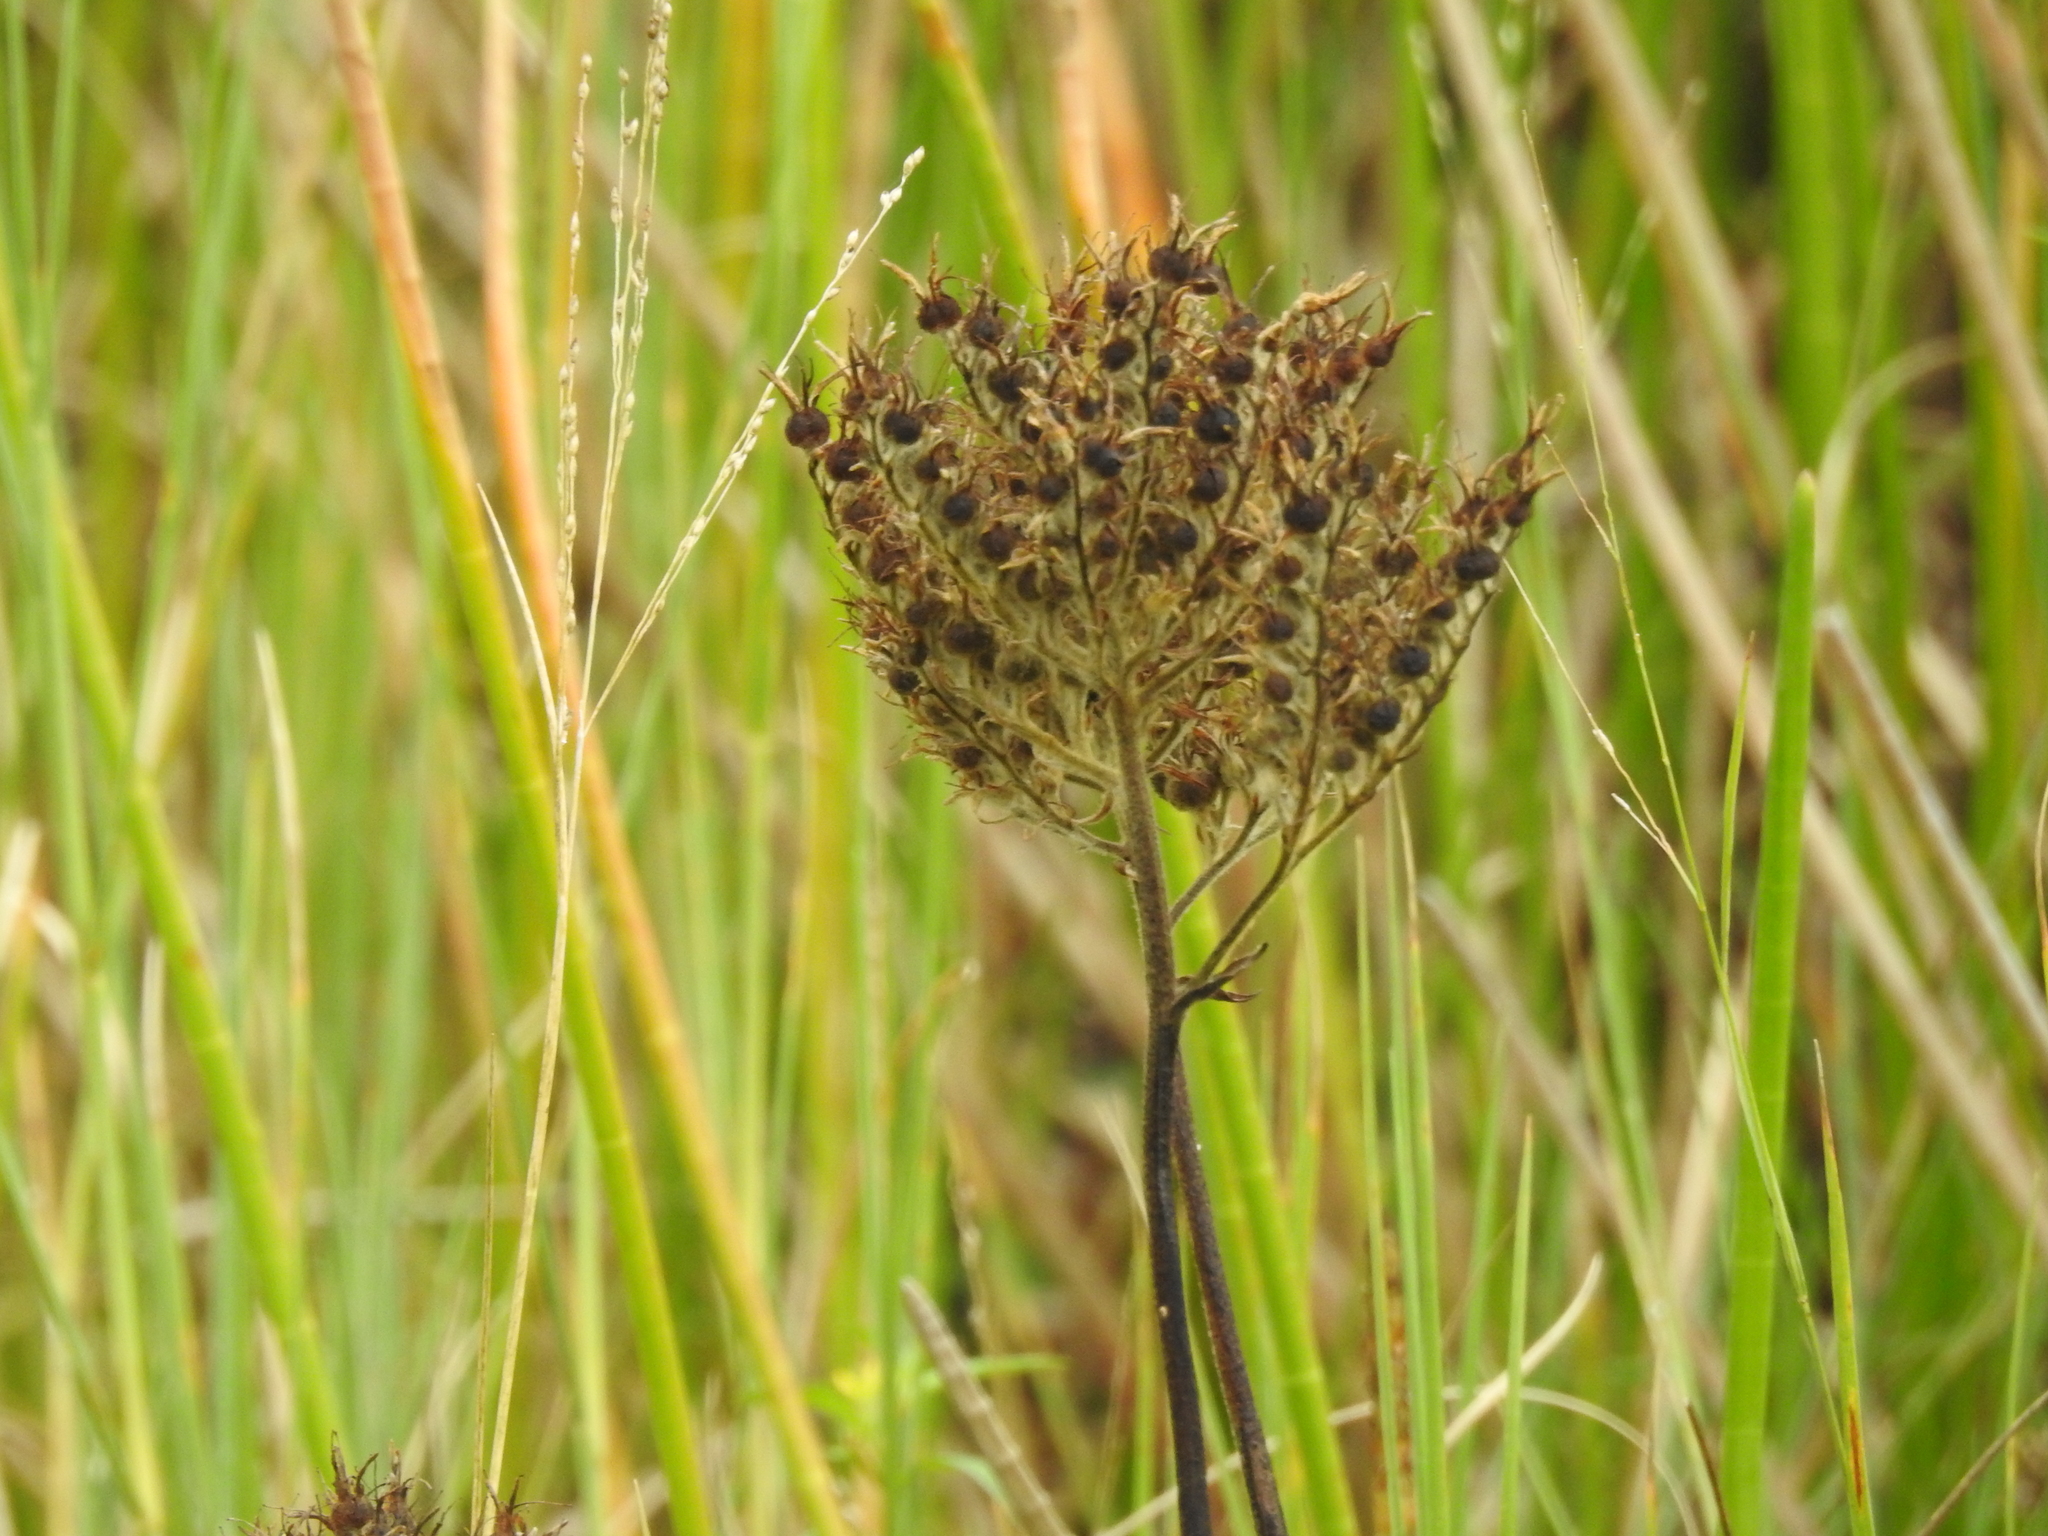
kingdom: Plantae
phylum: Tracheophyta
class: Liliopsida
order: Commelinales
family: Haemodoraceae
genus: Lachnanthes
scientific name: Lachnanthes caroliana
